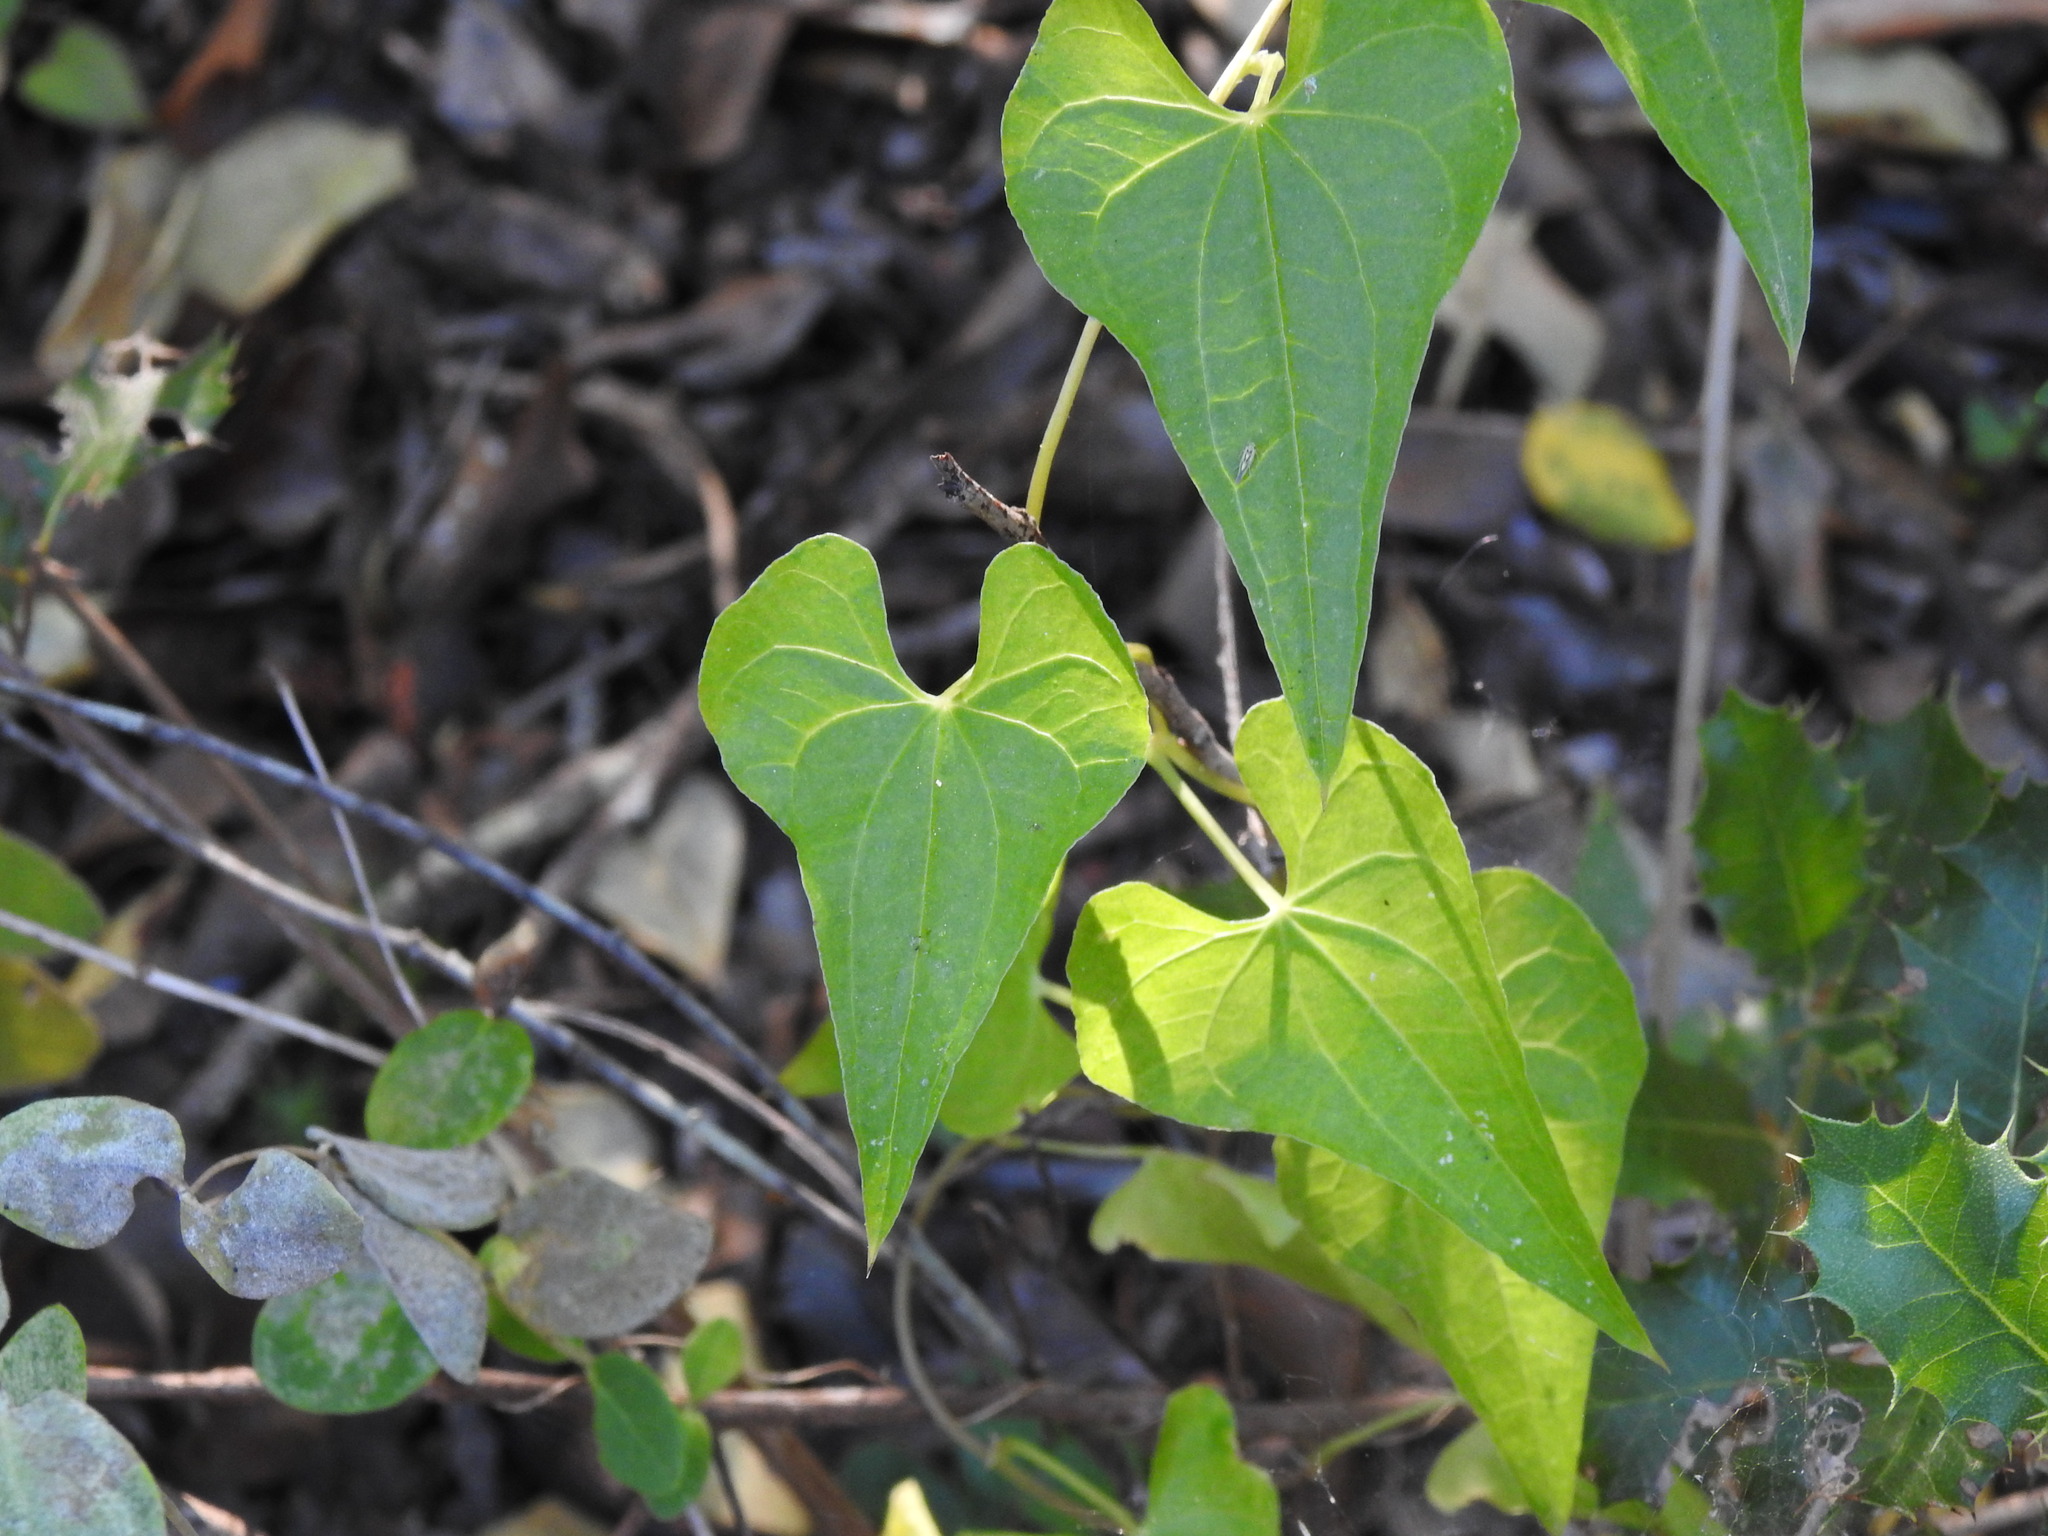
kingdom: Plantae
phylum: Tracheophyta
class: Liliopsida
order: Dioscoreales
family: Dioscoreaceae
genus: Dioscorea
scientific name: Dioscorea communis
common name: Black-bindweed
